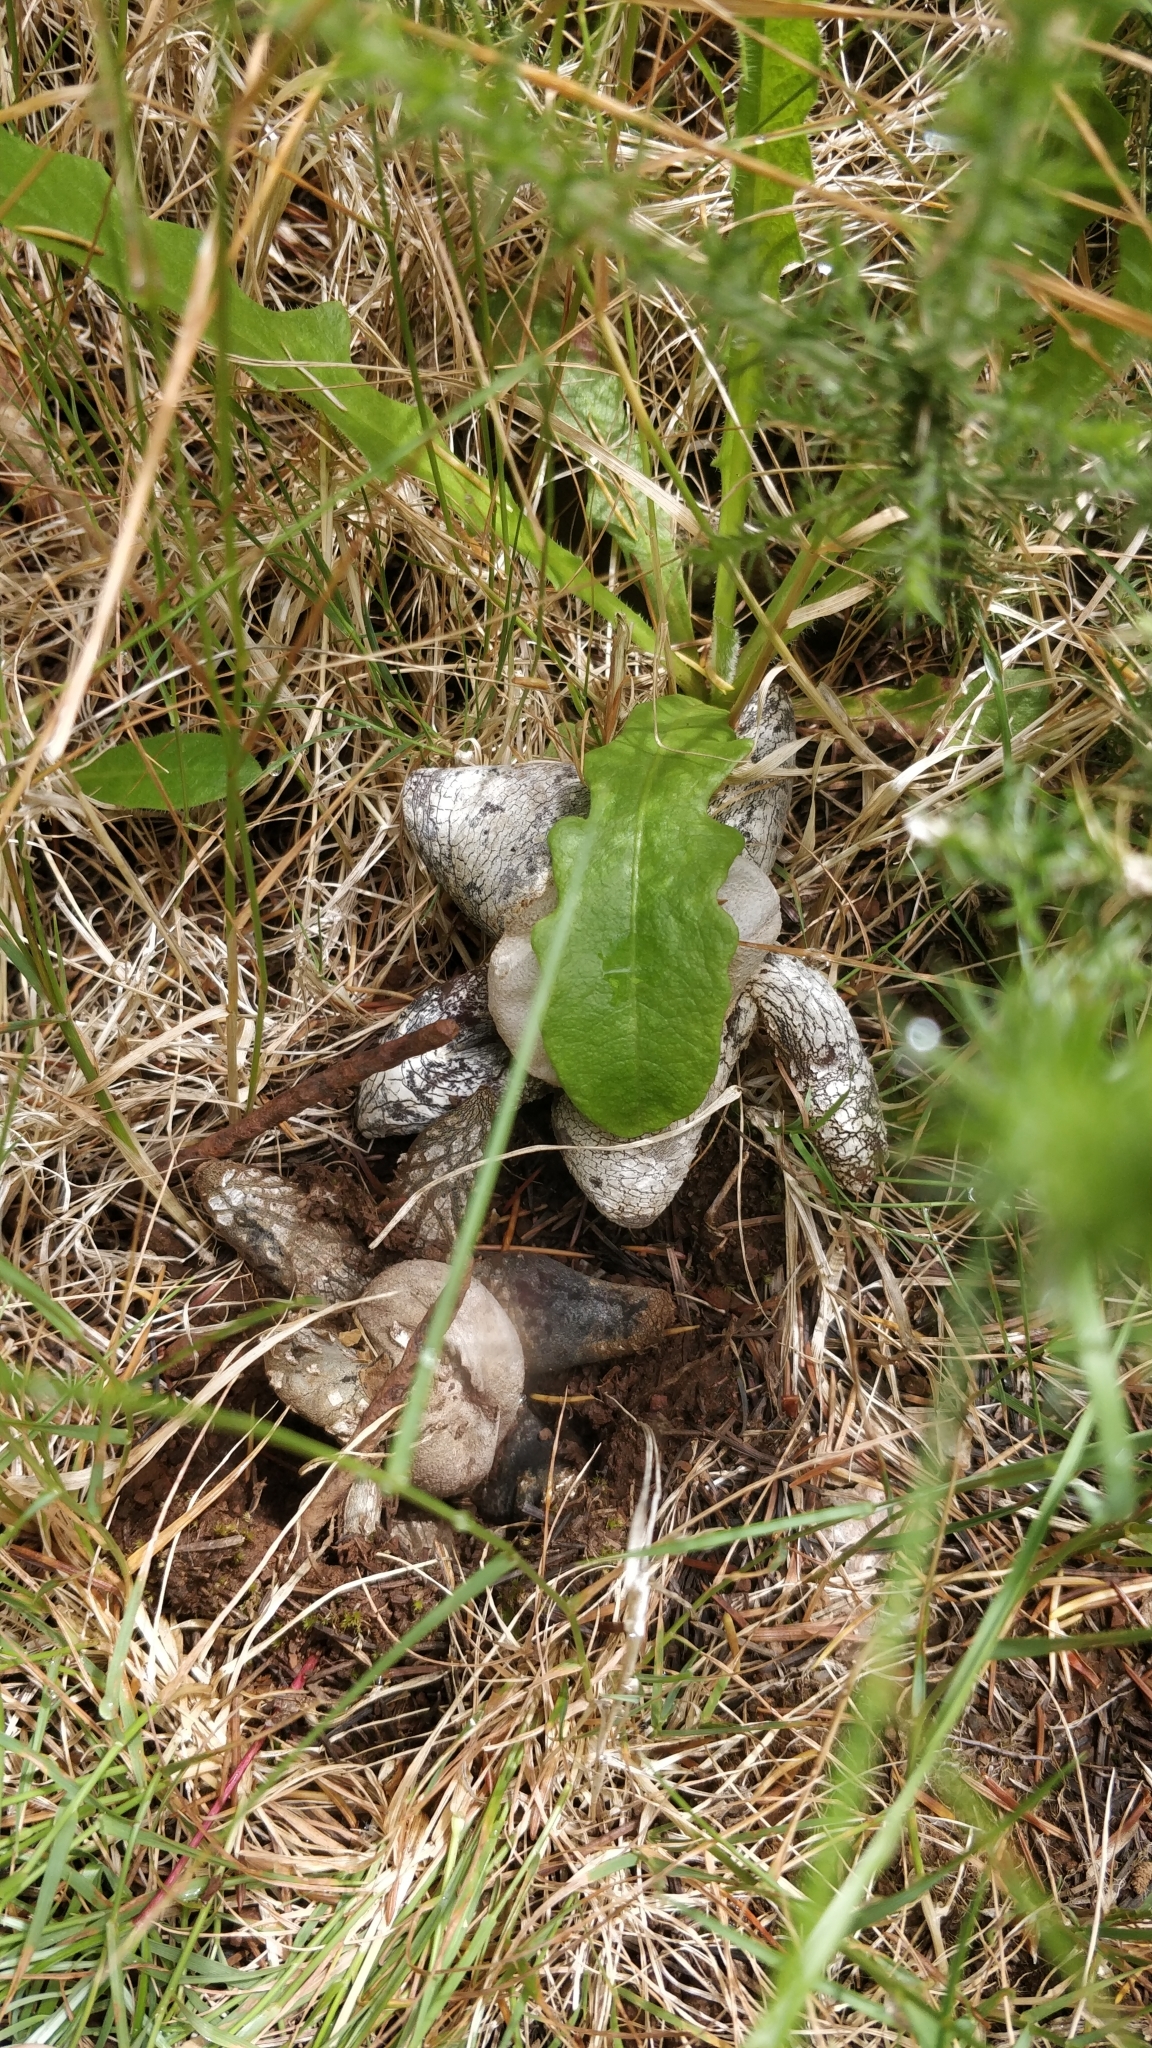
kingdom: Fungi
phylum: Basidiomycota
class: Agaricomycetes
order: Boletales
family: Diplocystidiaceae
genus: Astraeus
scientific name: Astraeus hygrometricus
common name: Barometer earthstar
